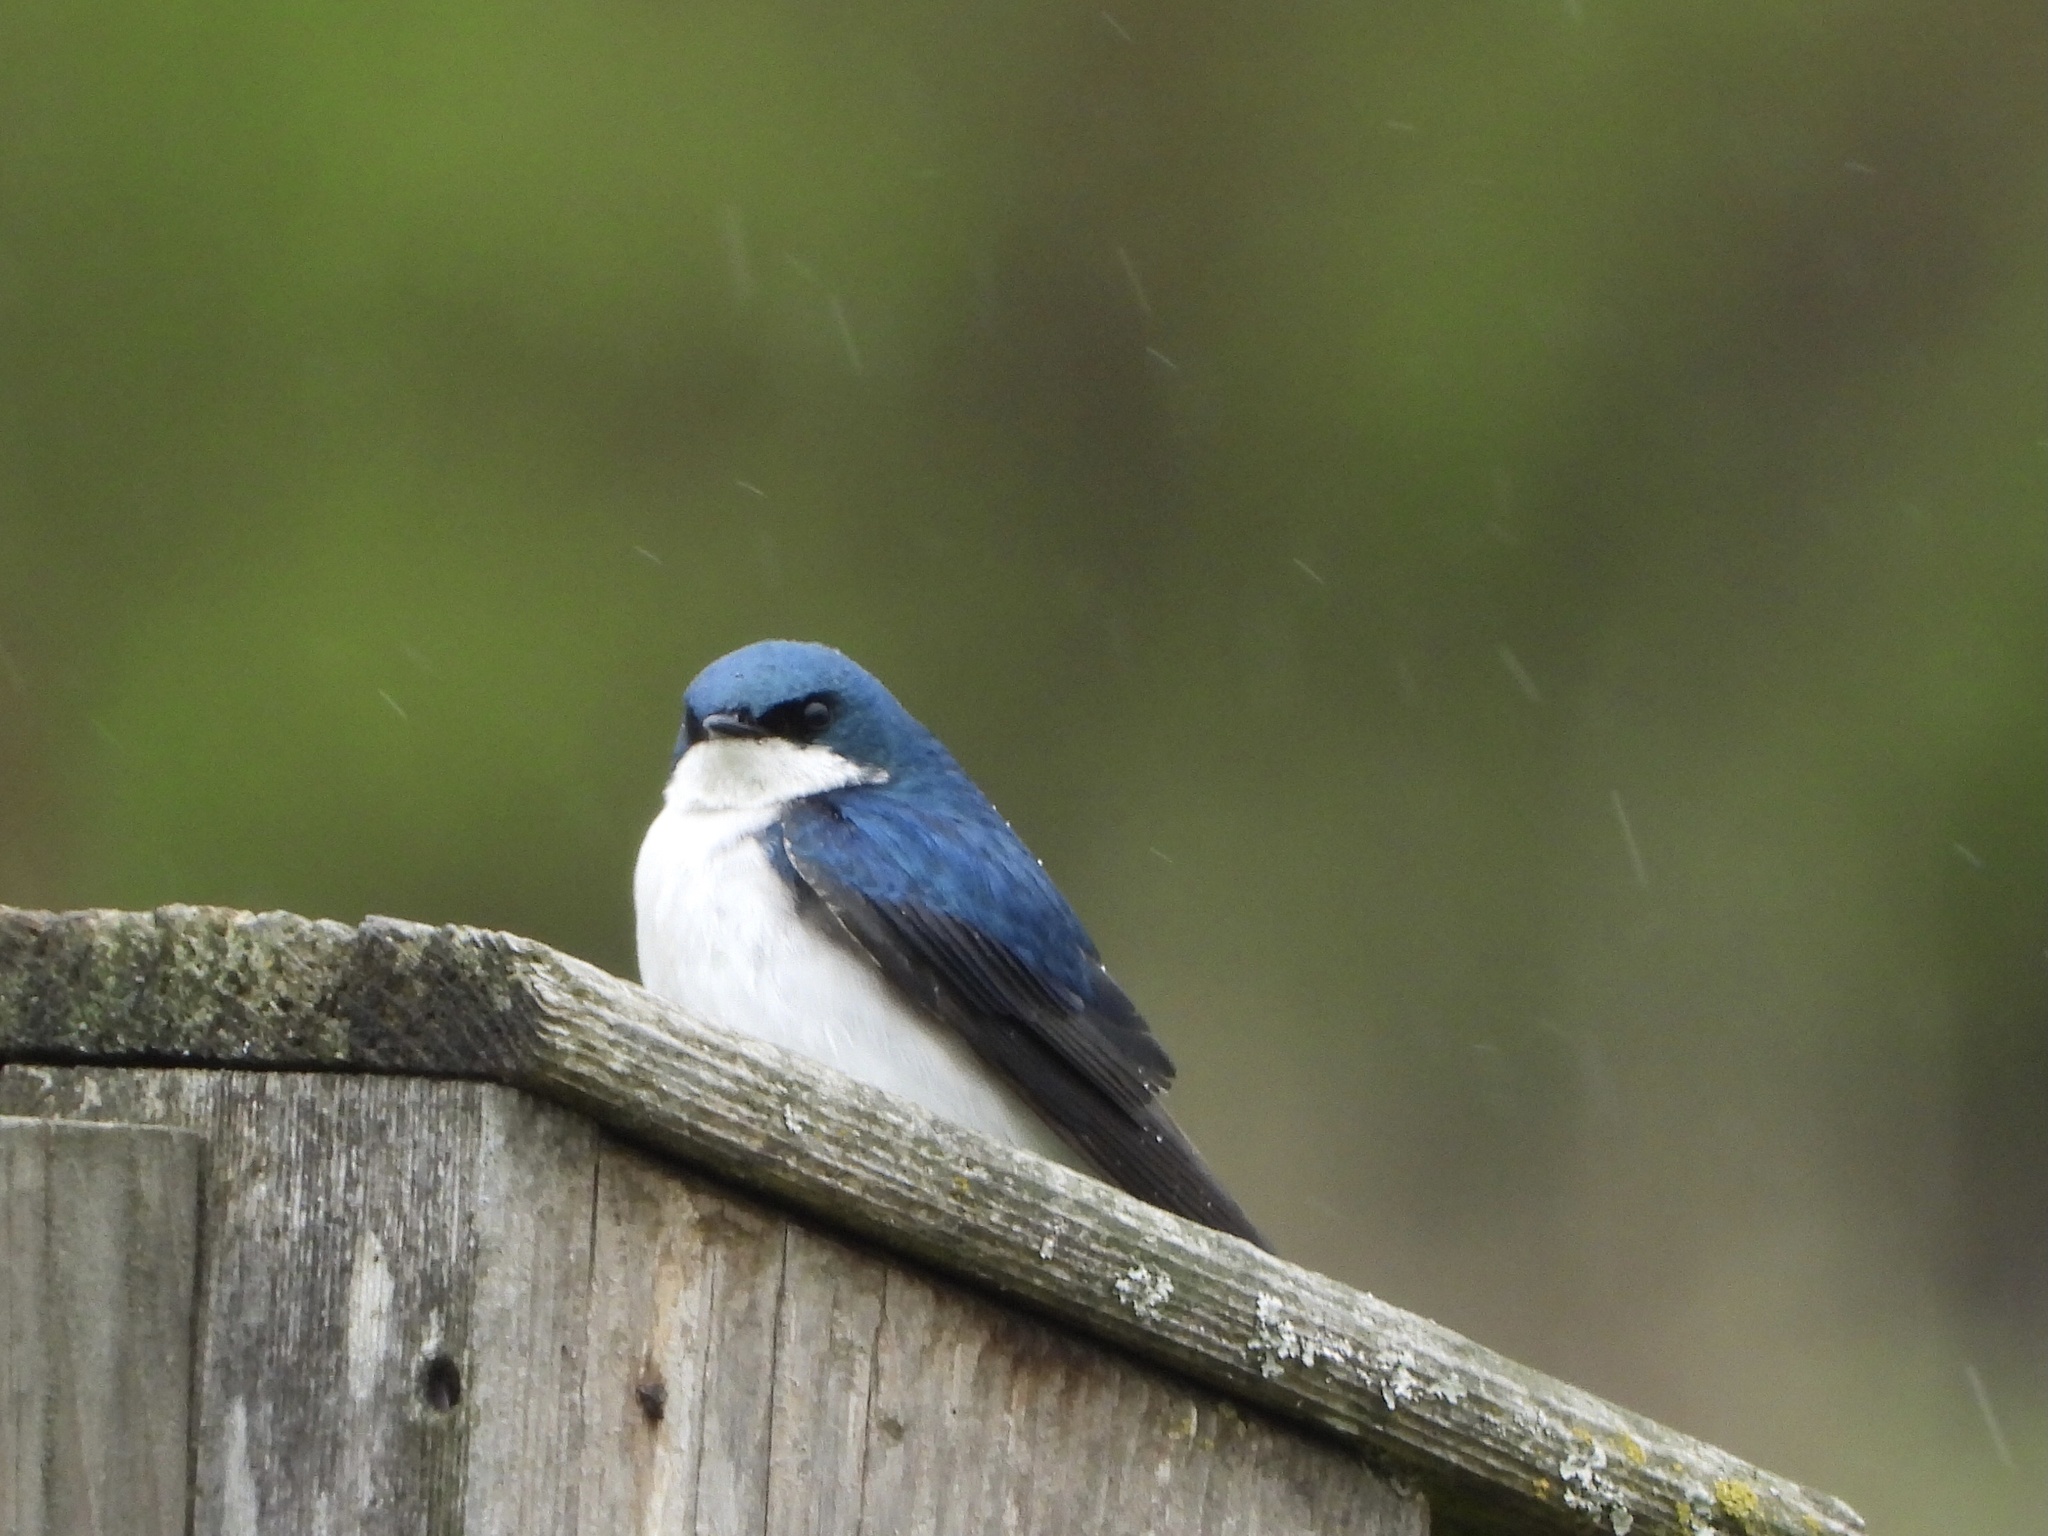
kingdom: Animalia
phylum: Chordata
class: Aves
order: Passeriformes
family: Hirundinidae
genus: Tachycineta
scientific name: Tachycineta bicolor
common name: Tree swallow
